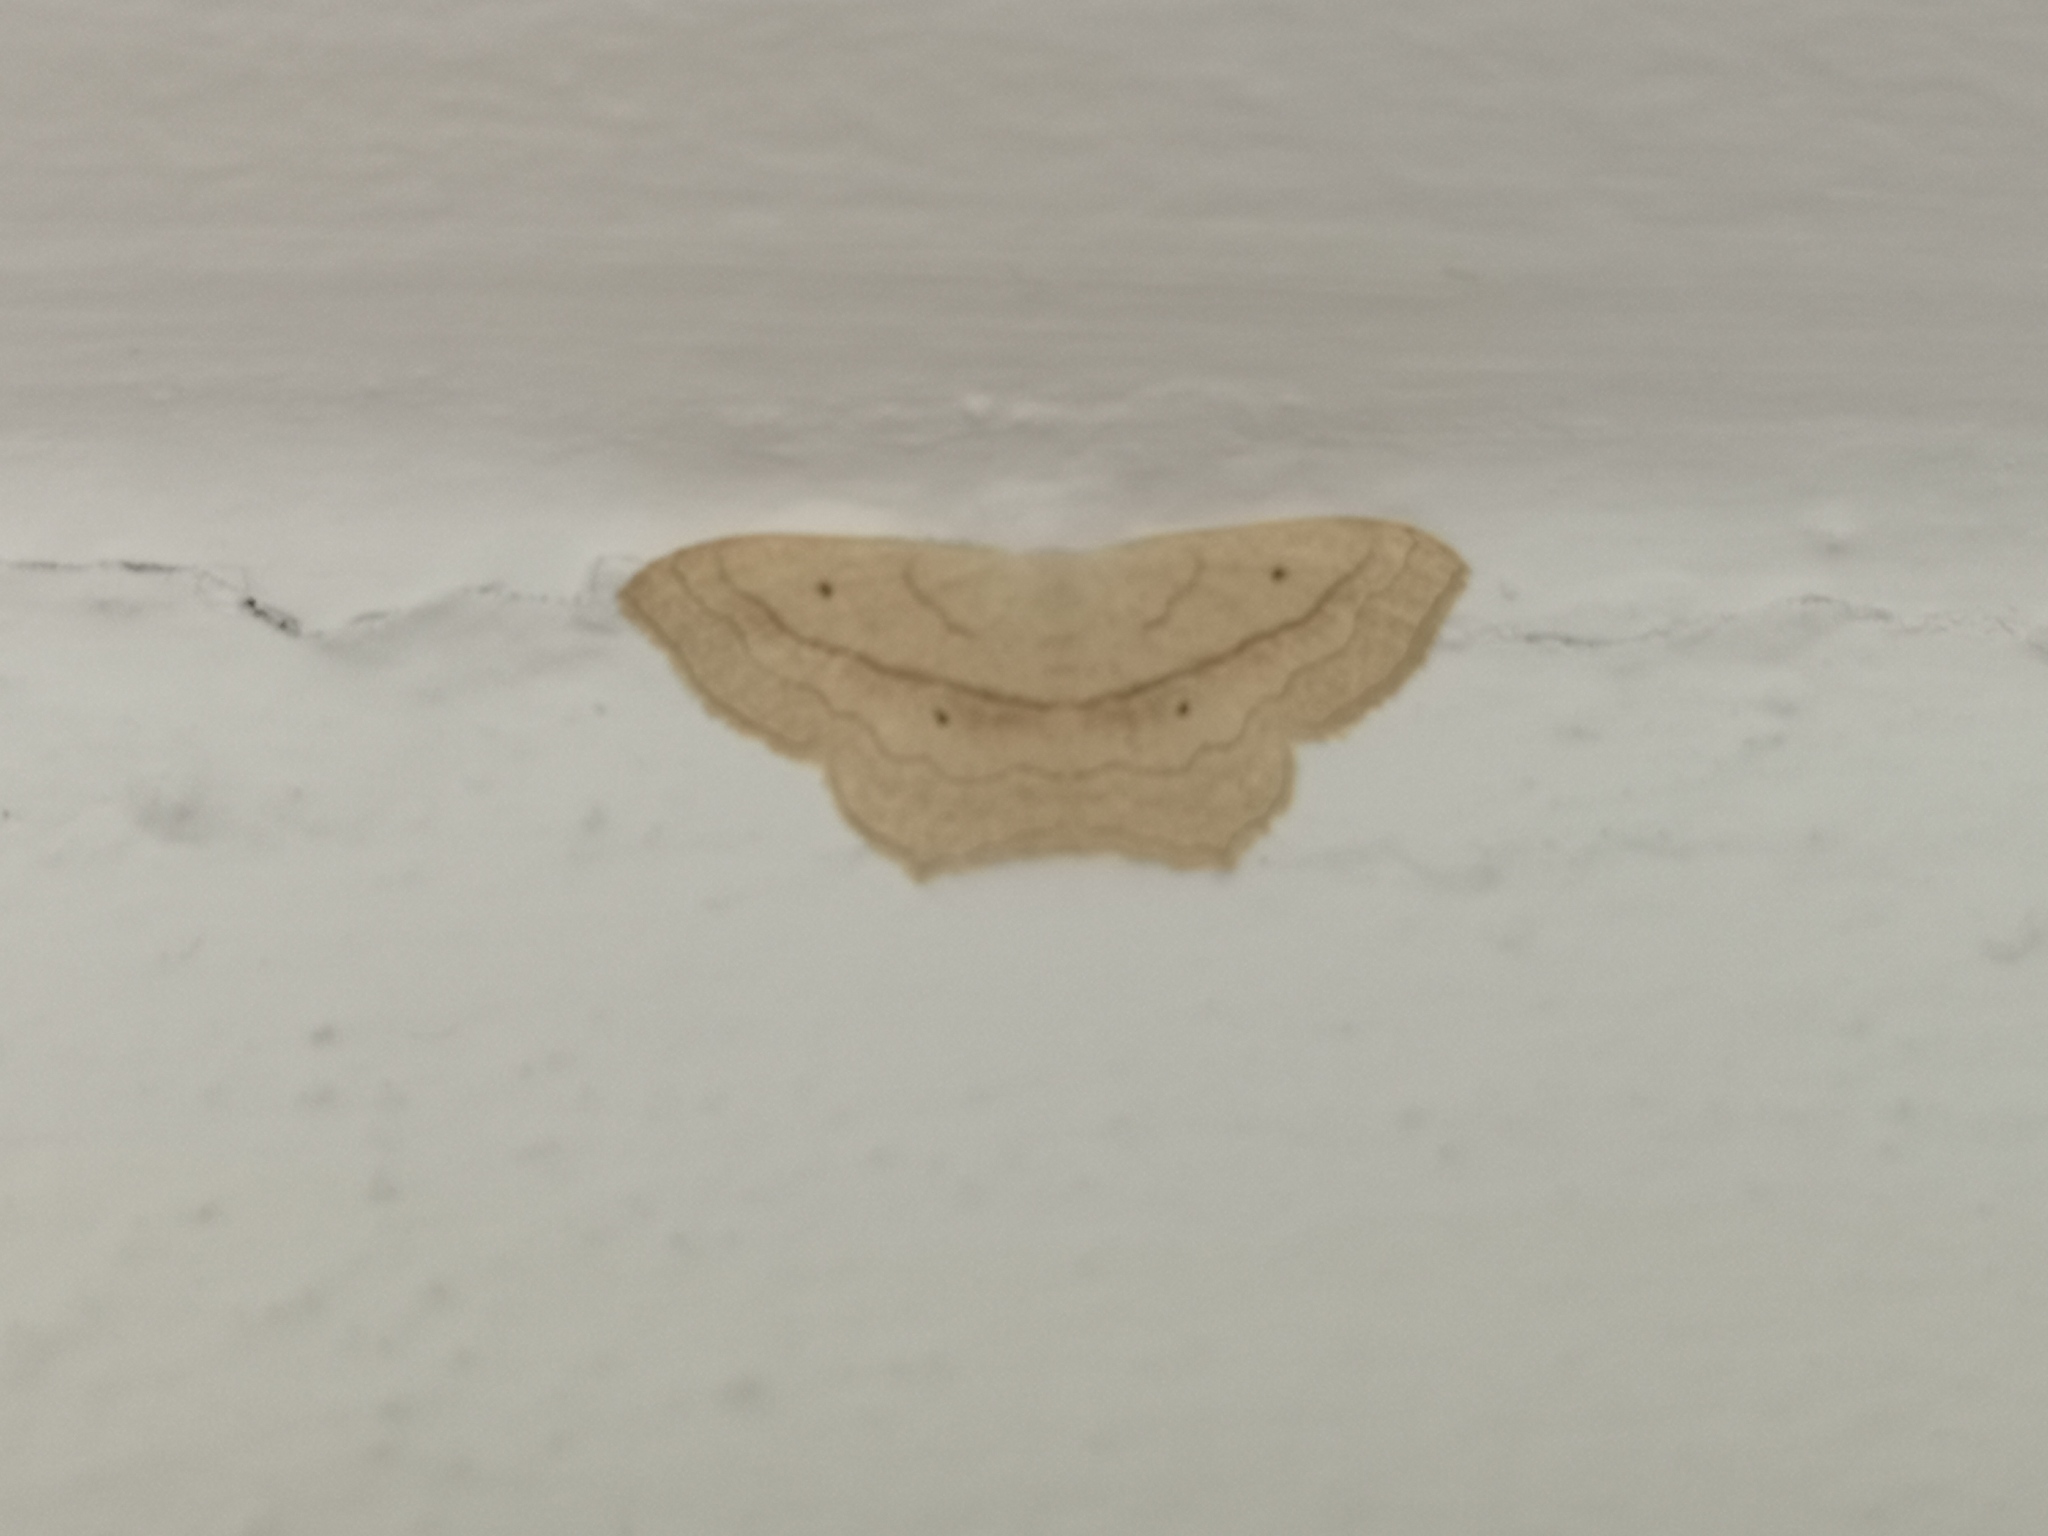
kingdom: Animalia
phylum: Arthropoda
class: Insecta
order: Lepidoptera
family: Geometridae
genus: Scopula
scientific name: Scopula imitaria
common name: Small blood-vein
